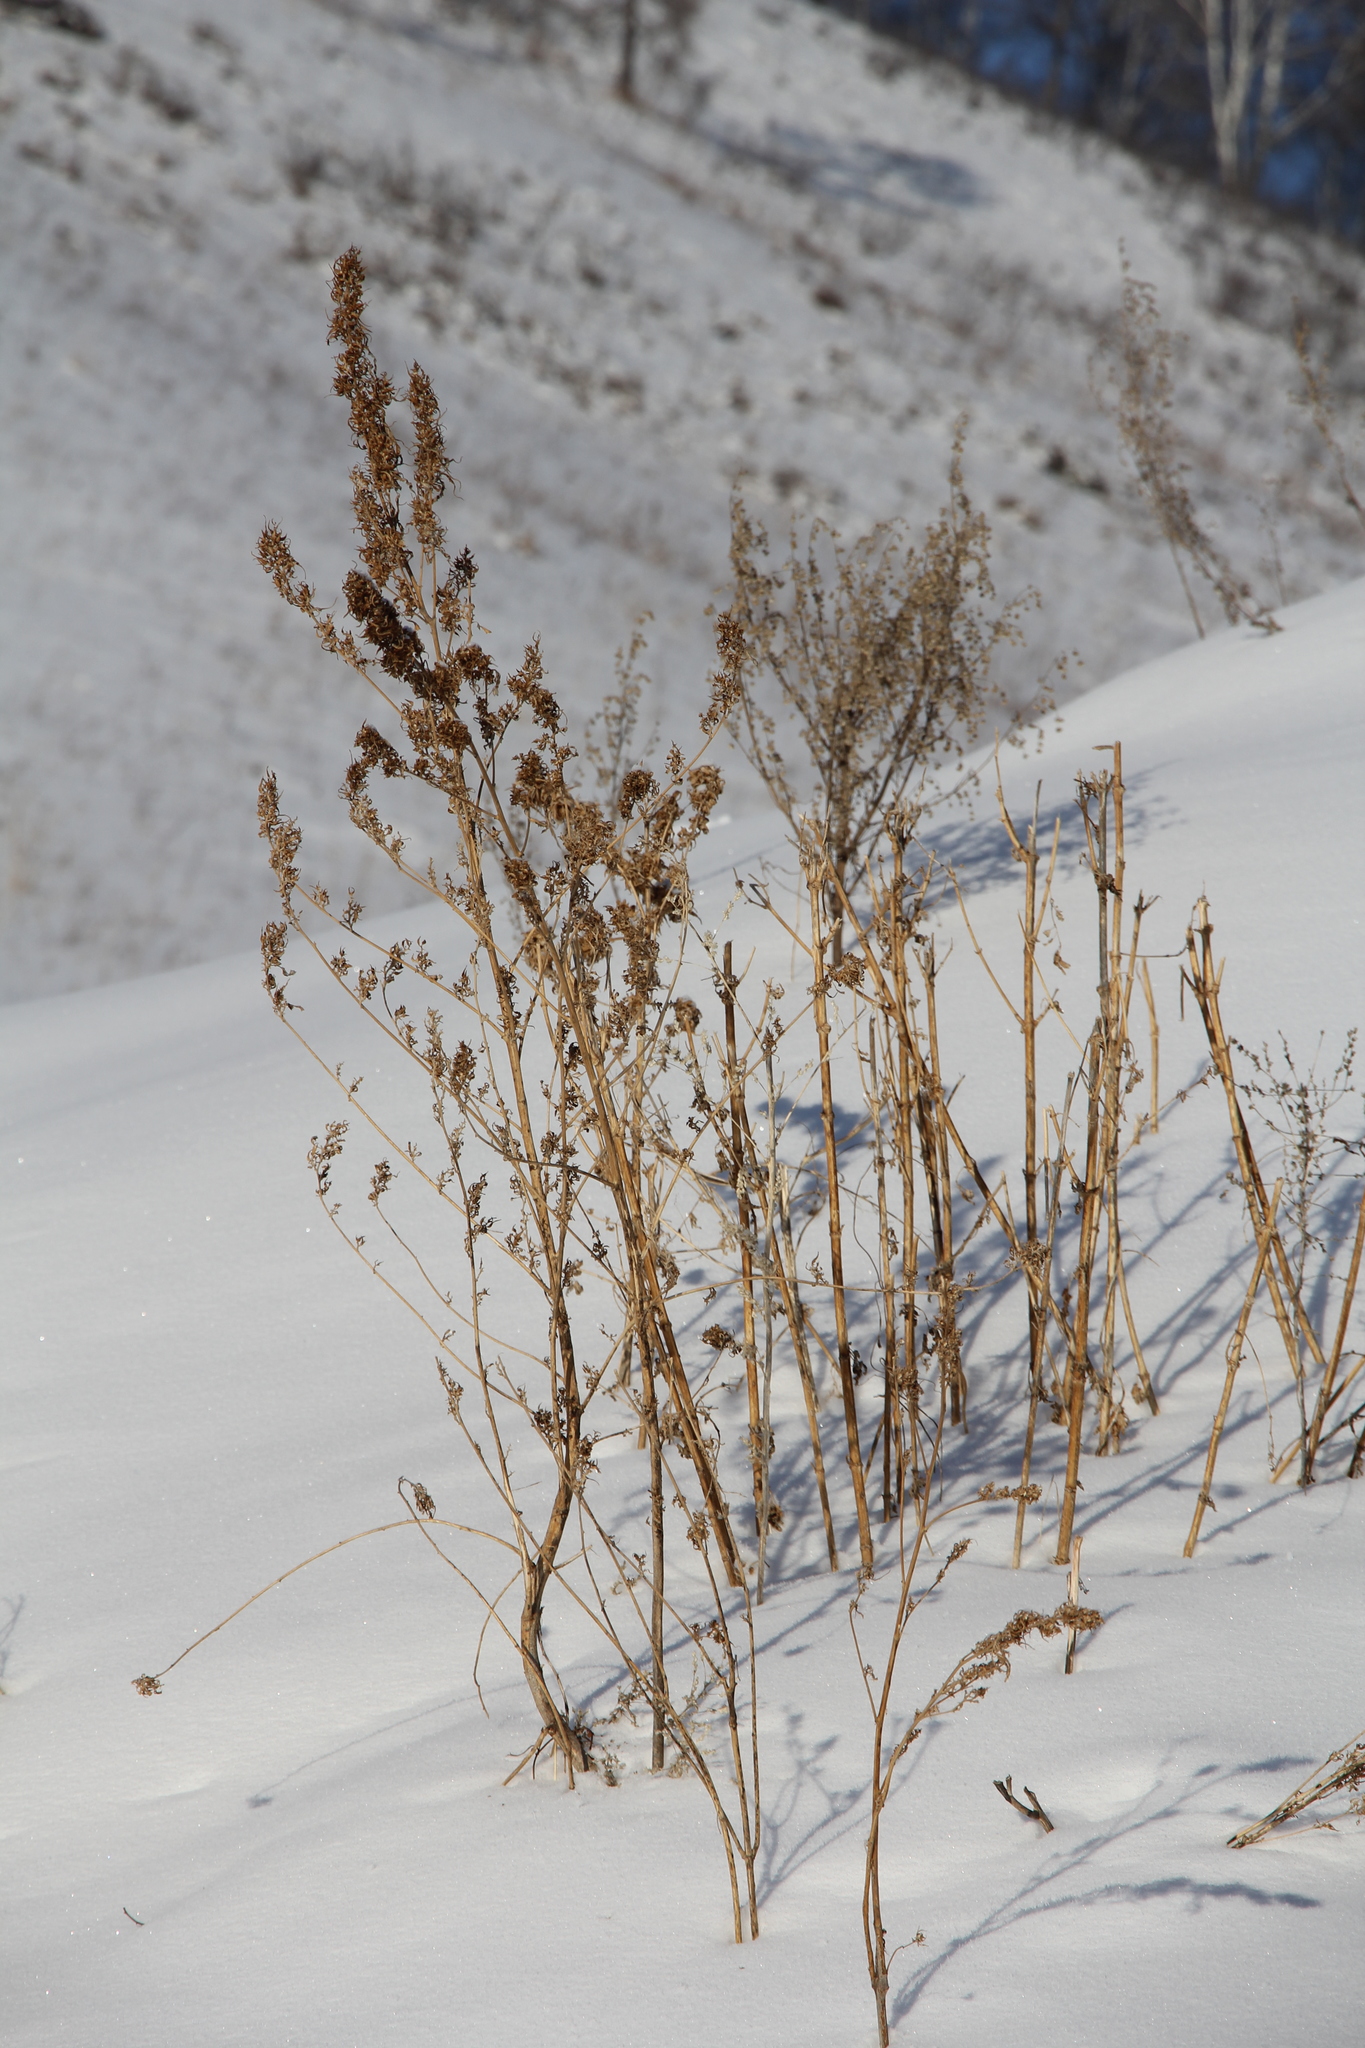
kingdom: Plantae
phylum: Tracheophyta
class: Magnoliopsida
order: Rosales
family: Cannabaceae
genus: Cannabis
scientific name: Cannabis sativa
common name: Hemp
